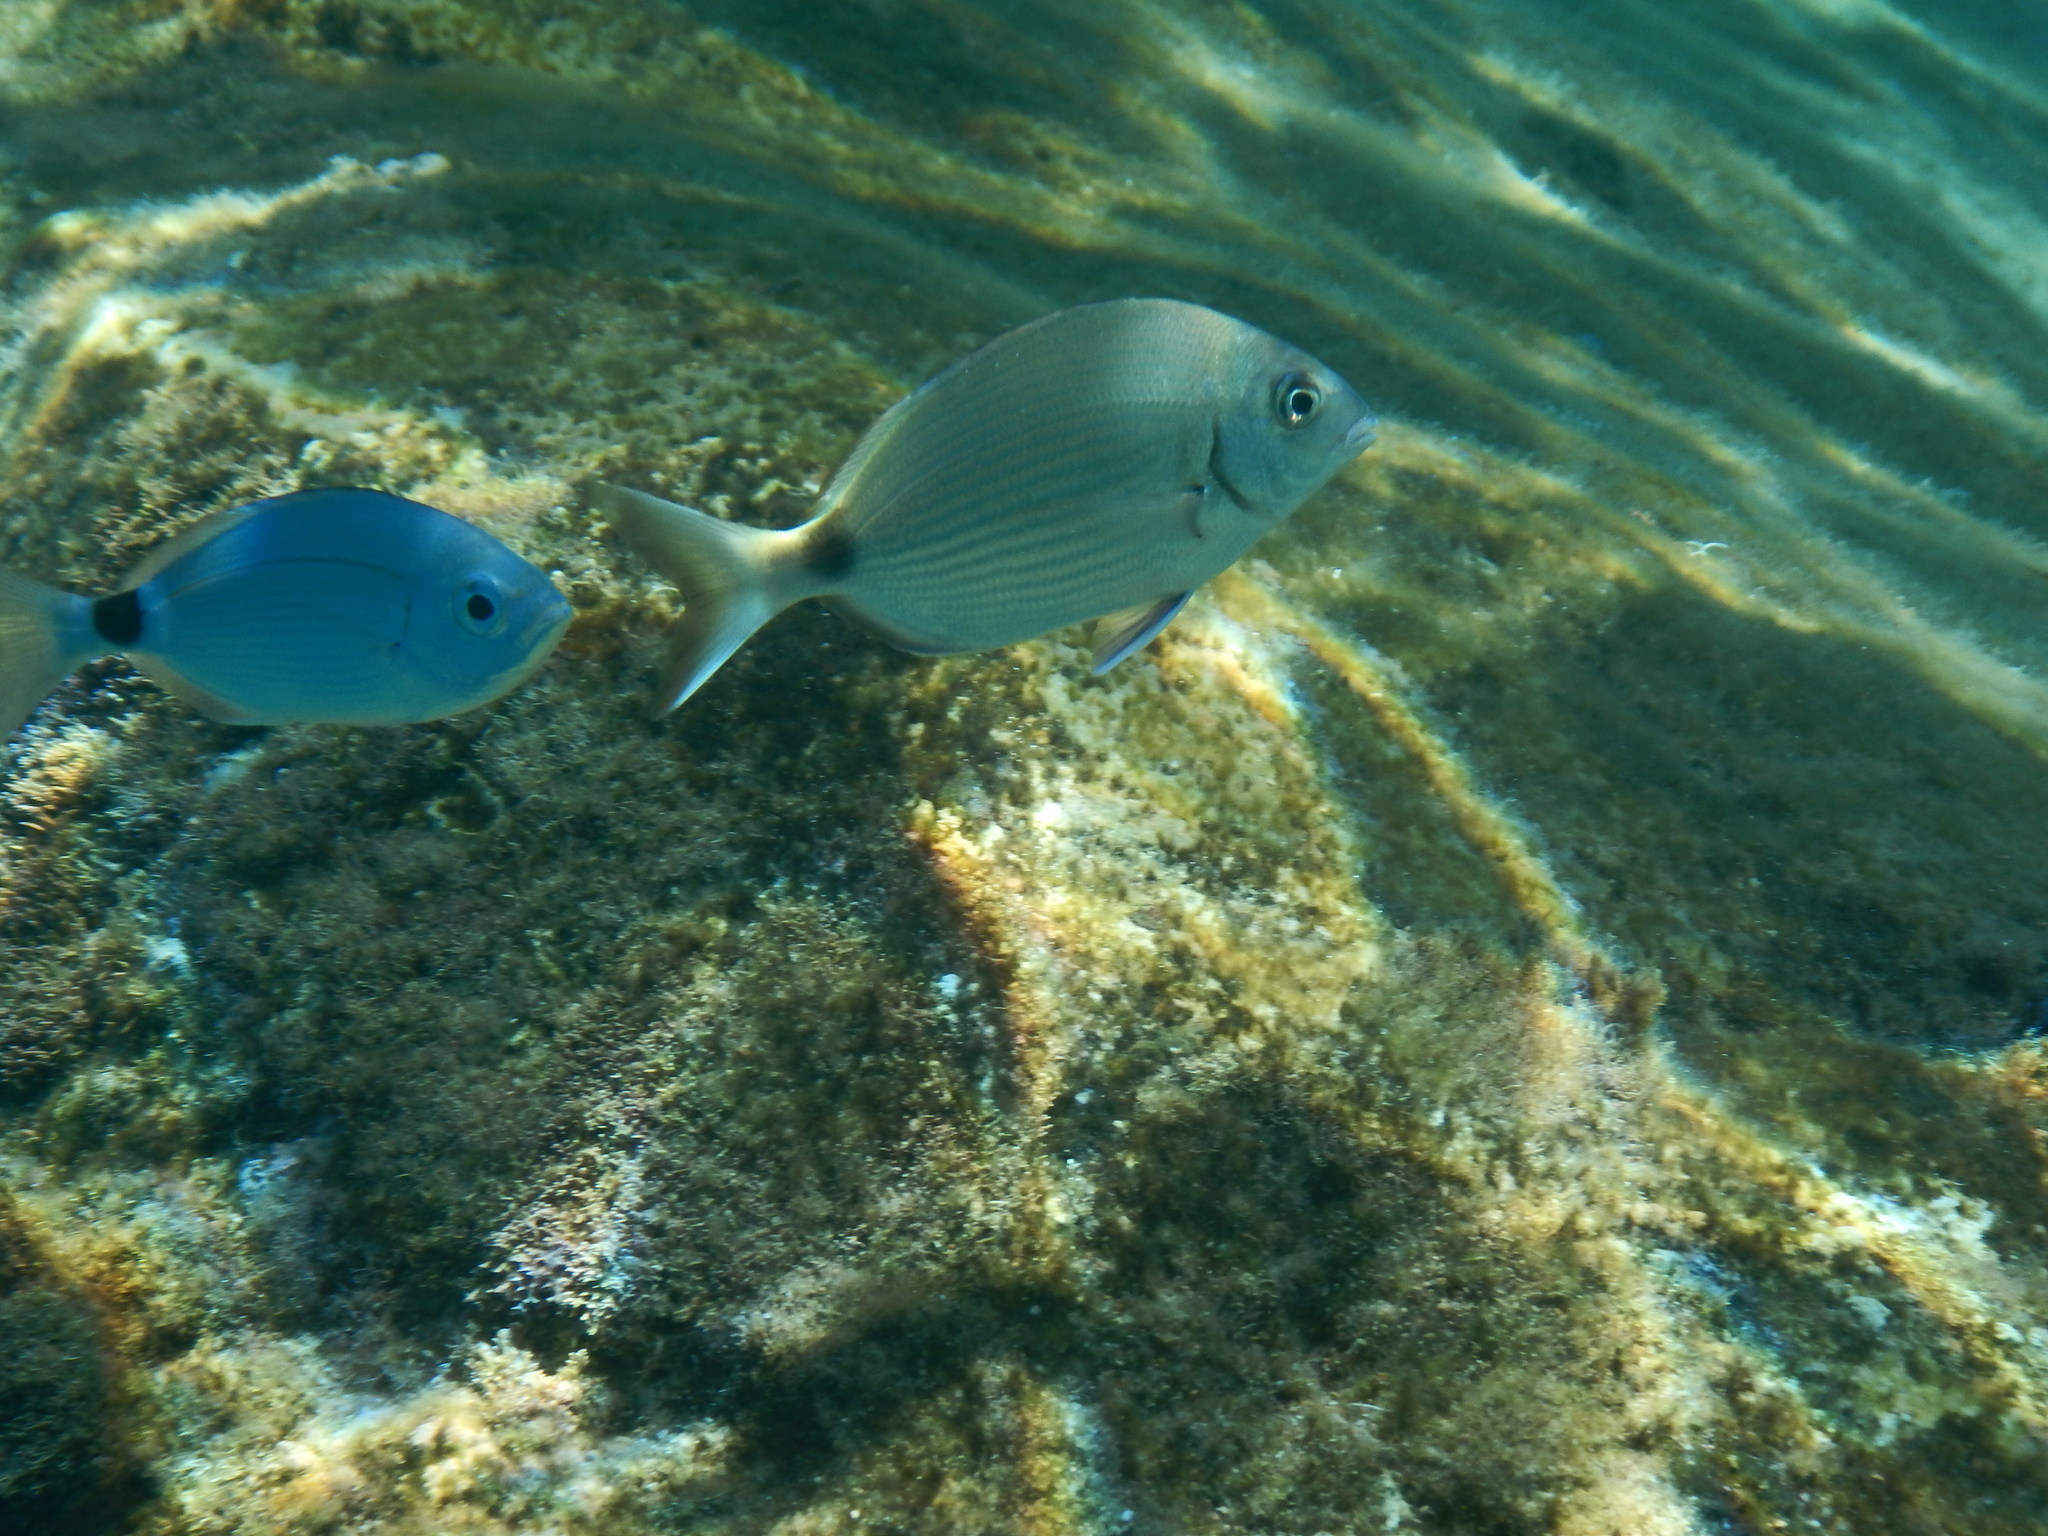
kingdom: Animalia
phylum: Chordata
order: Perciformes
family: Sparidae
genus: Diplodus
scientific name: Diplodus sargus
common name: White seabream
